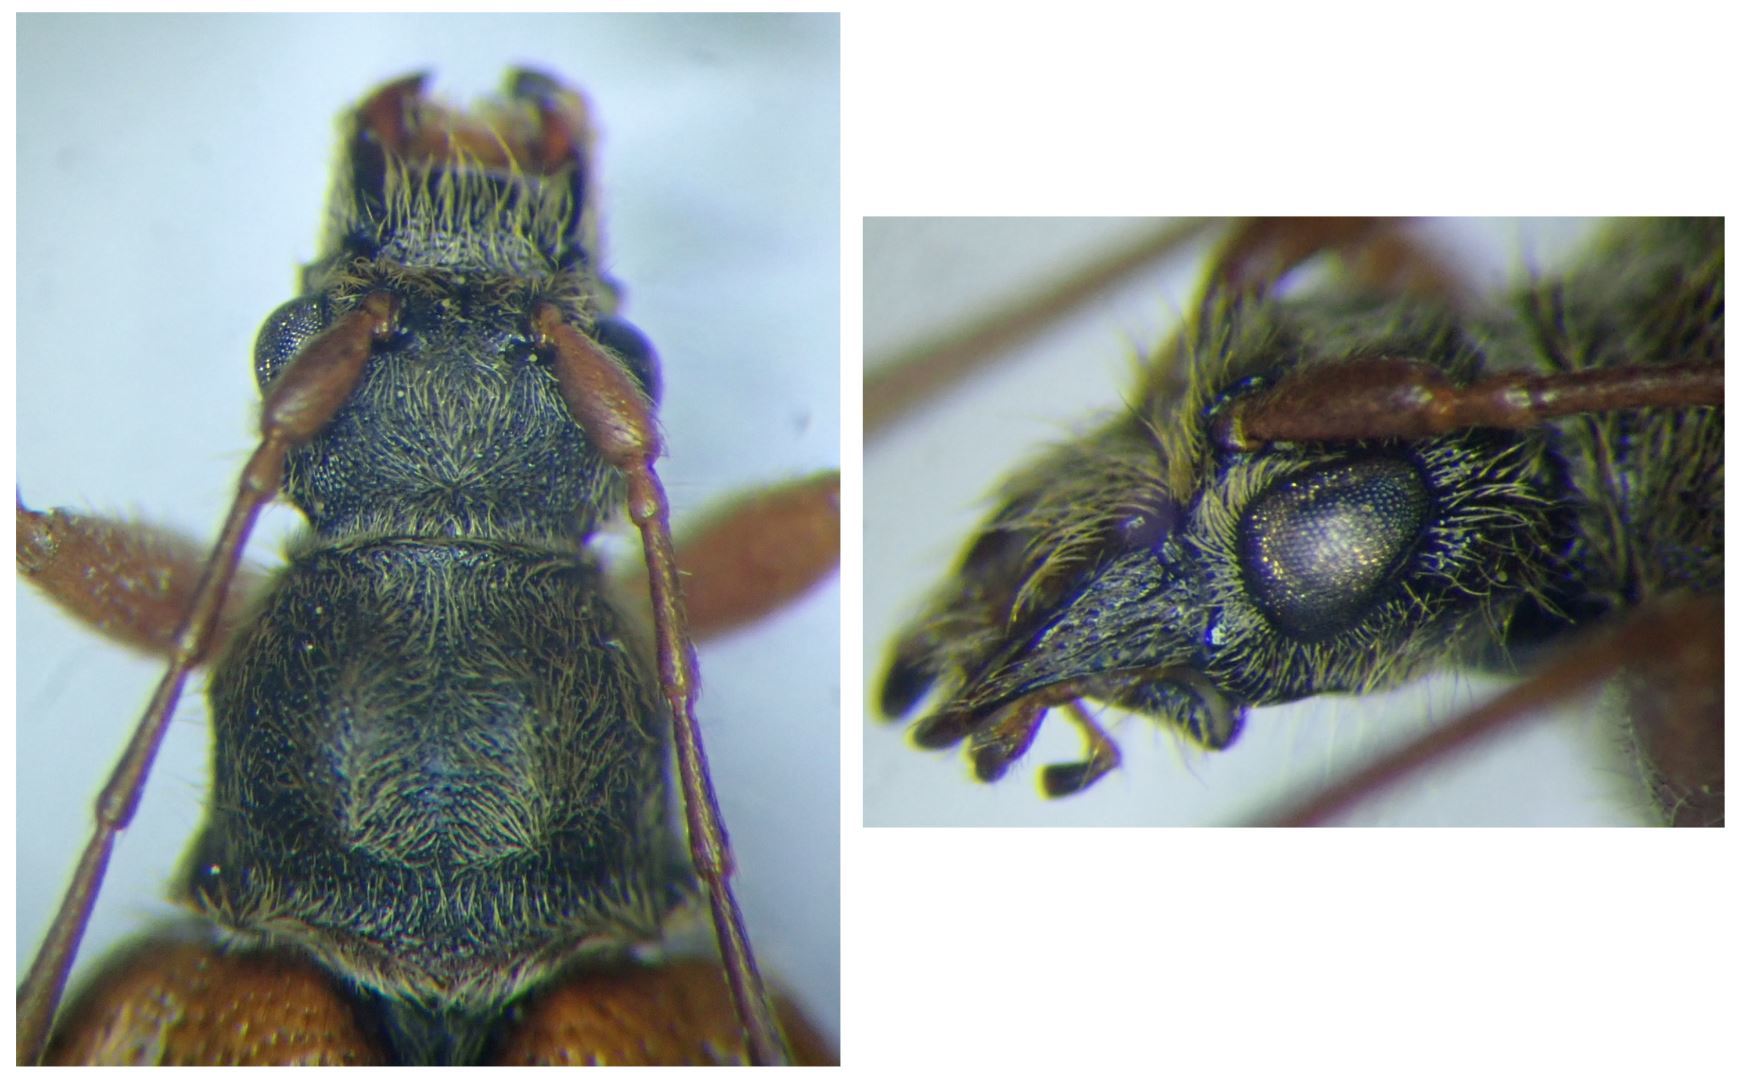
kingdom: Animalia
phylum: Arthropoda
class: Insecta
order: Coleoptera
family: Cerambycidae
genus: Cortodera
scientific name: Cortodera humeralis
